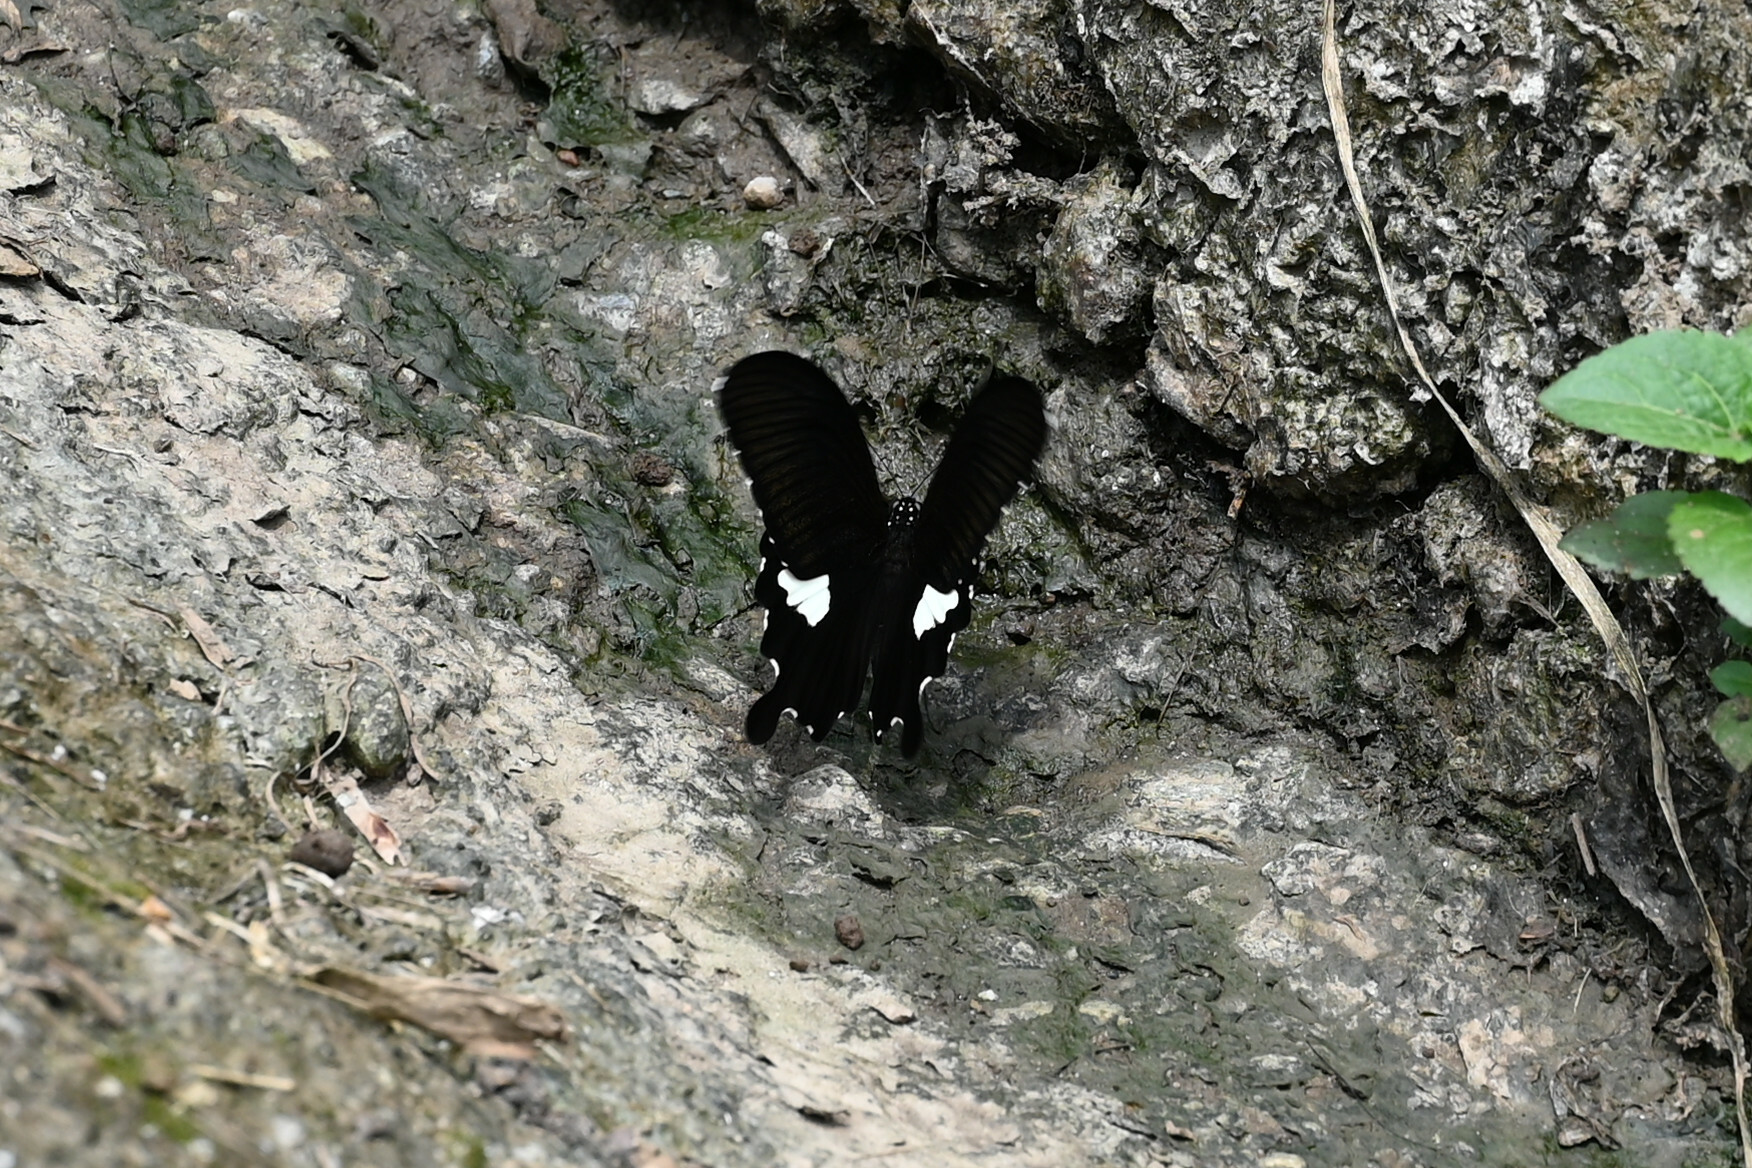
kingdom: Animalia
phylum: Arthropoda
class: Insecta
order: Lepidoptera
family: Papilionidae
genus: Atrophaneura
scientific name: Atrophaneura varuna
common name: Common batwing
